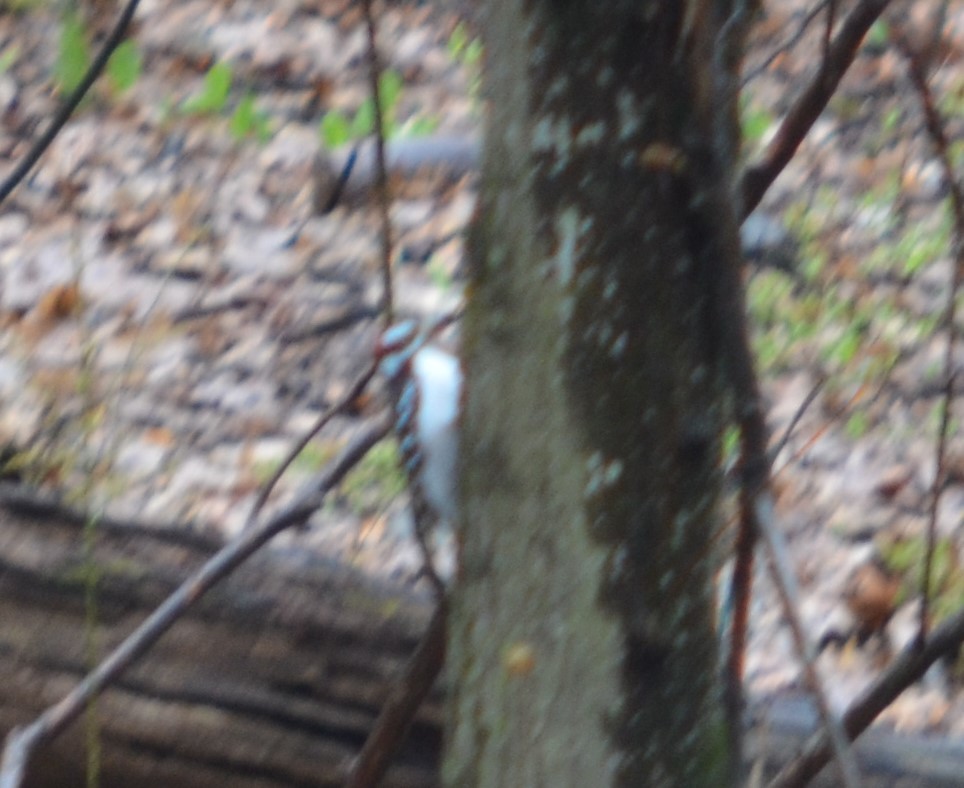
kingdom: Animalia
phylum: Chordata
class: Aves
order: Piciformes
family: Picidae
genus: Leuconotopicus
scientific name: Leuconotopicus villosus
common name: Hairy woodpecker
